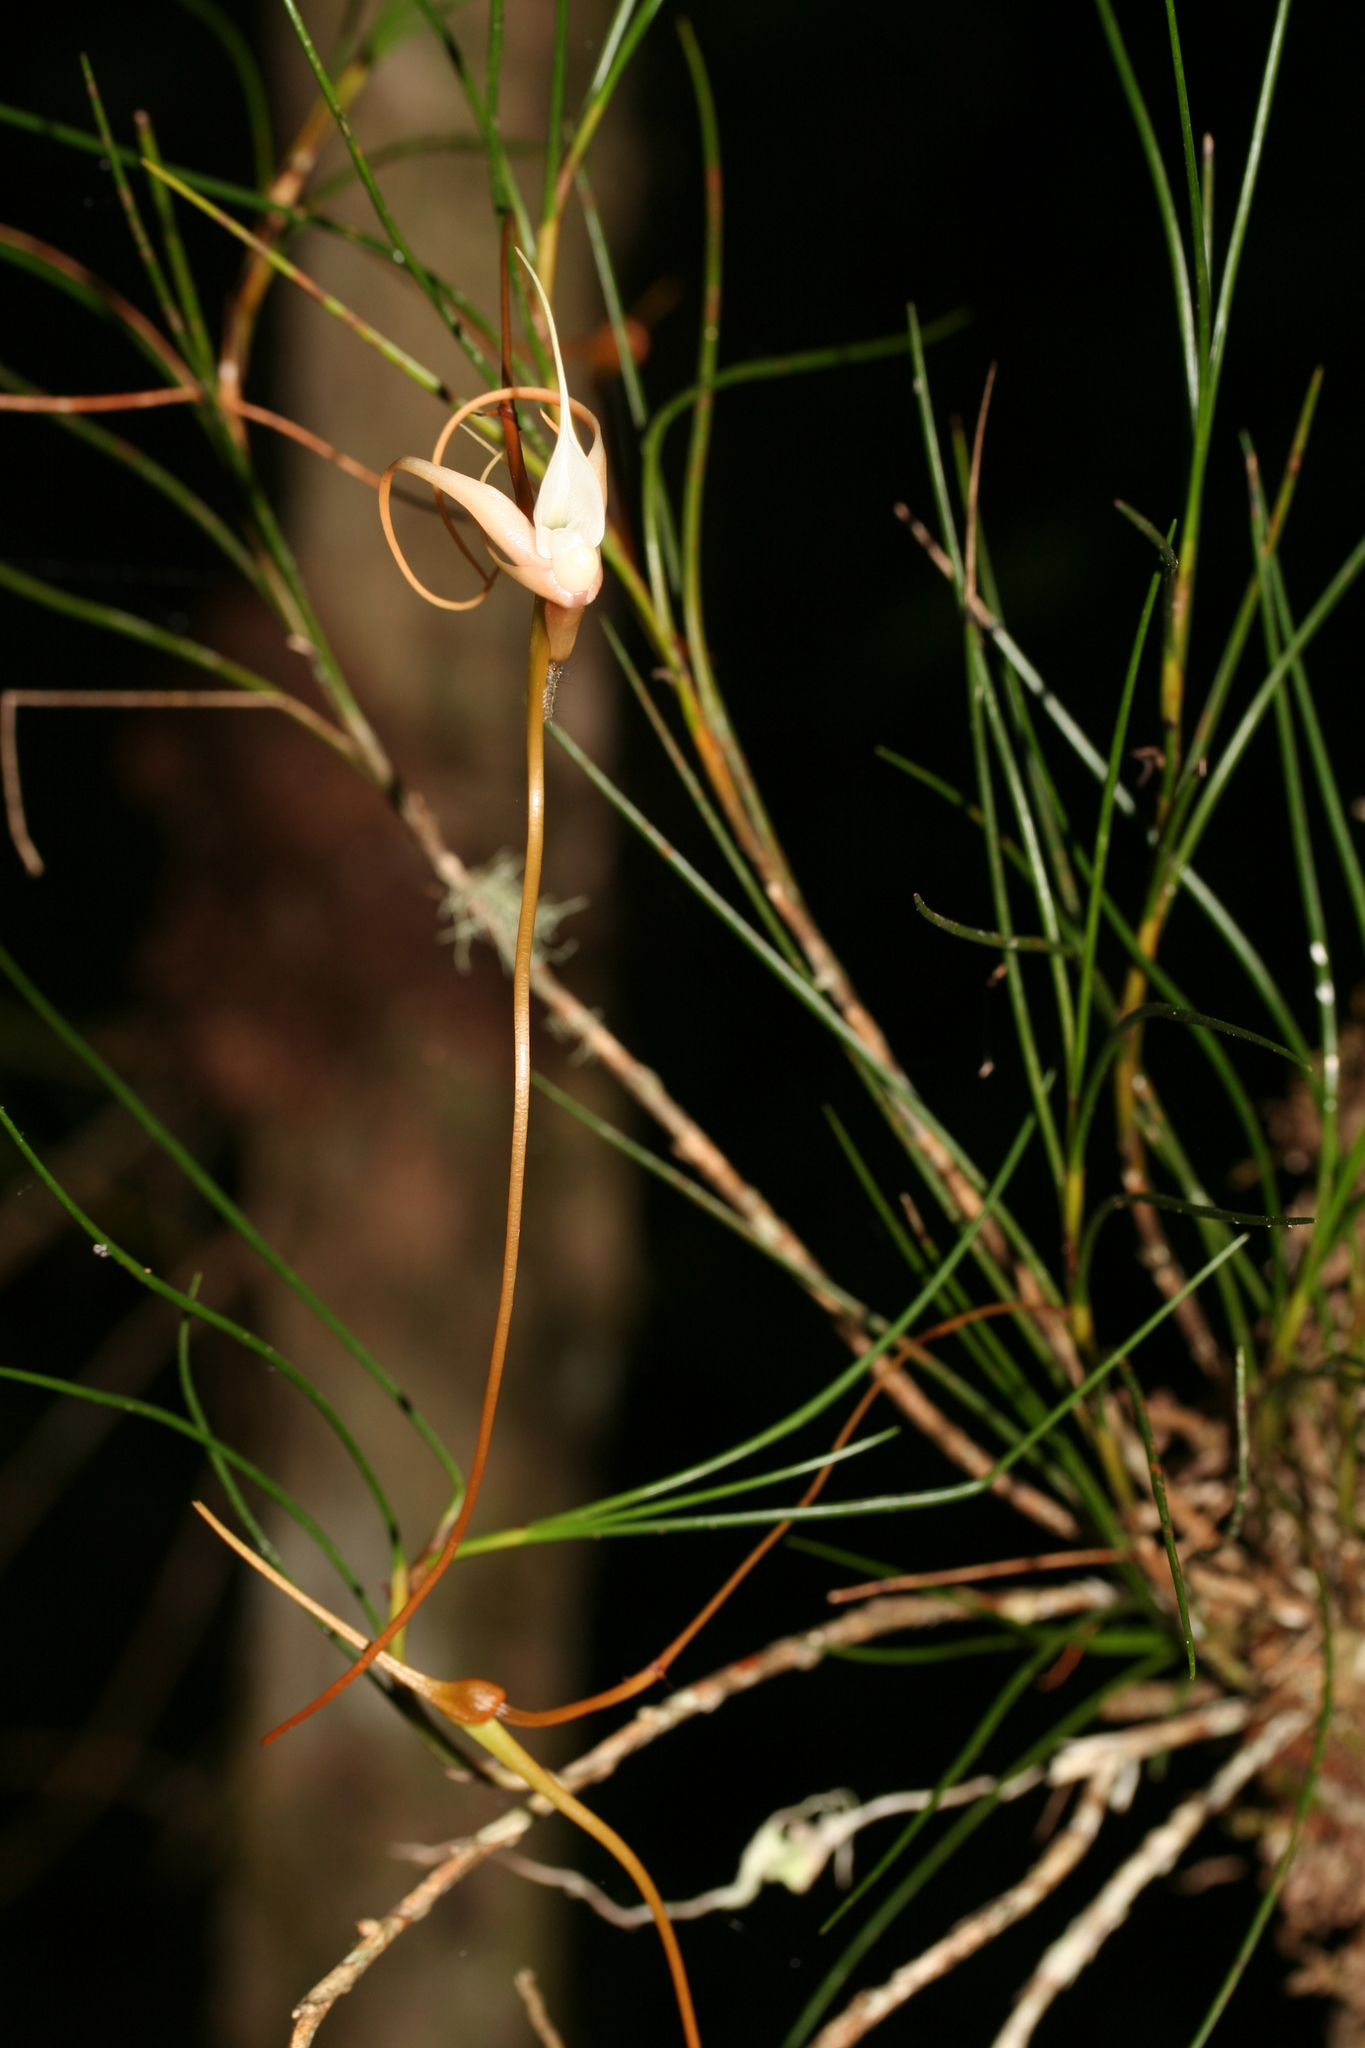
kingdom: Plantae
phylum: Tracheophyta
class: Liliopsida
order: Asparagales
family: Orchidaceae
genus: Angraecum
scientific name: Angraecum linearifolium
